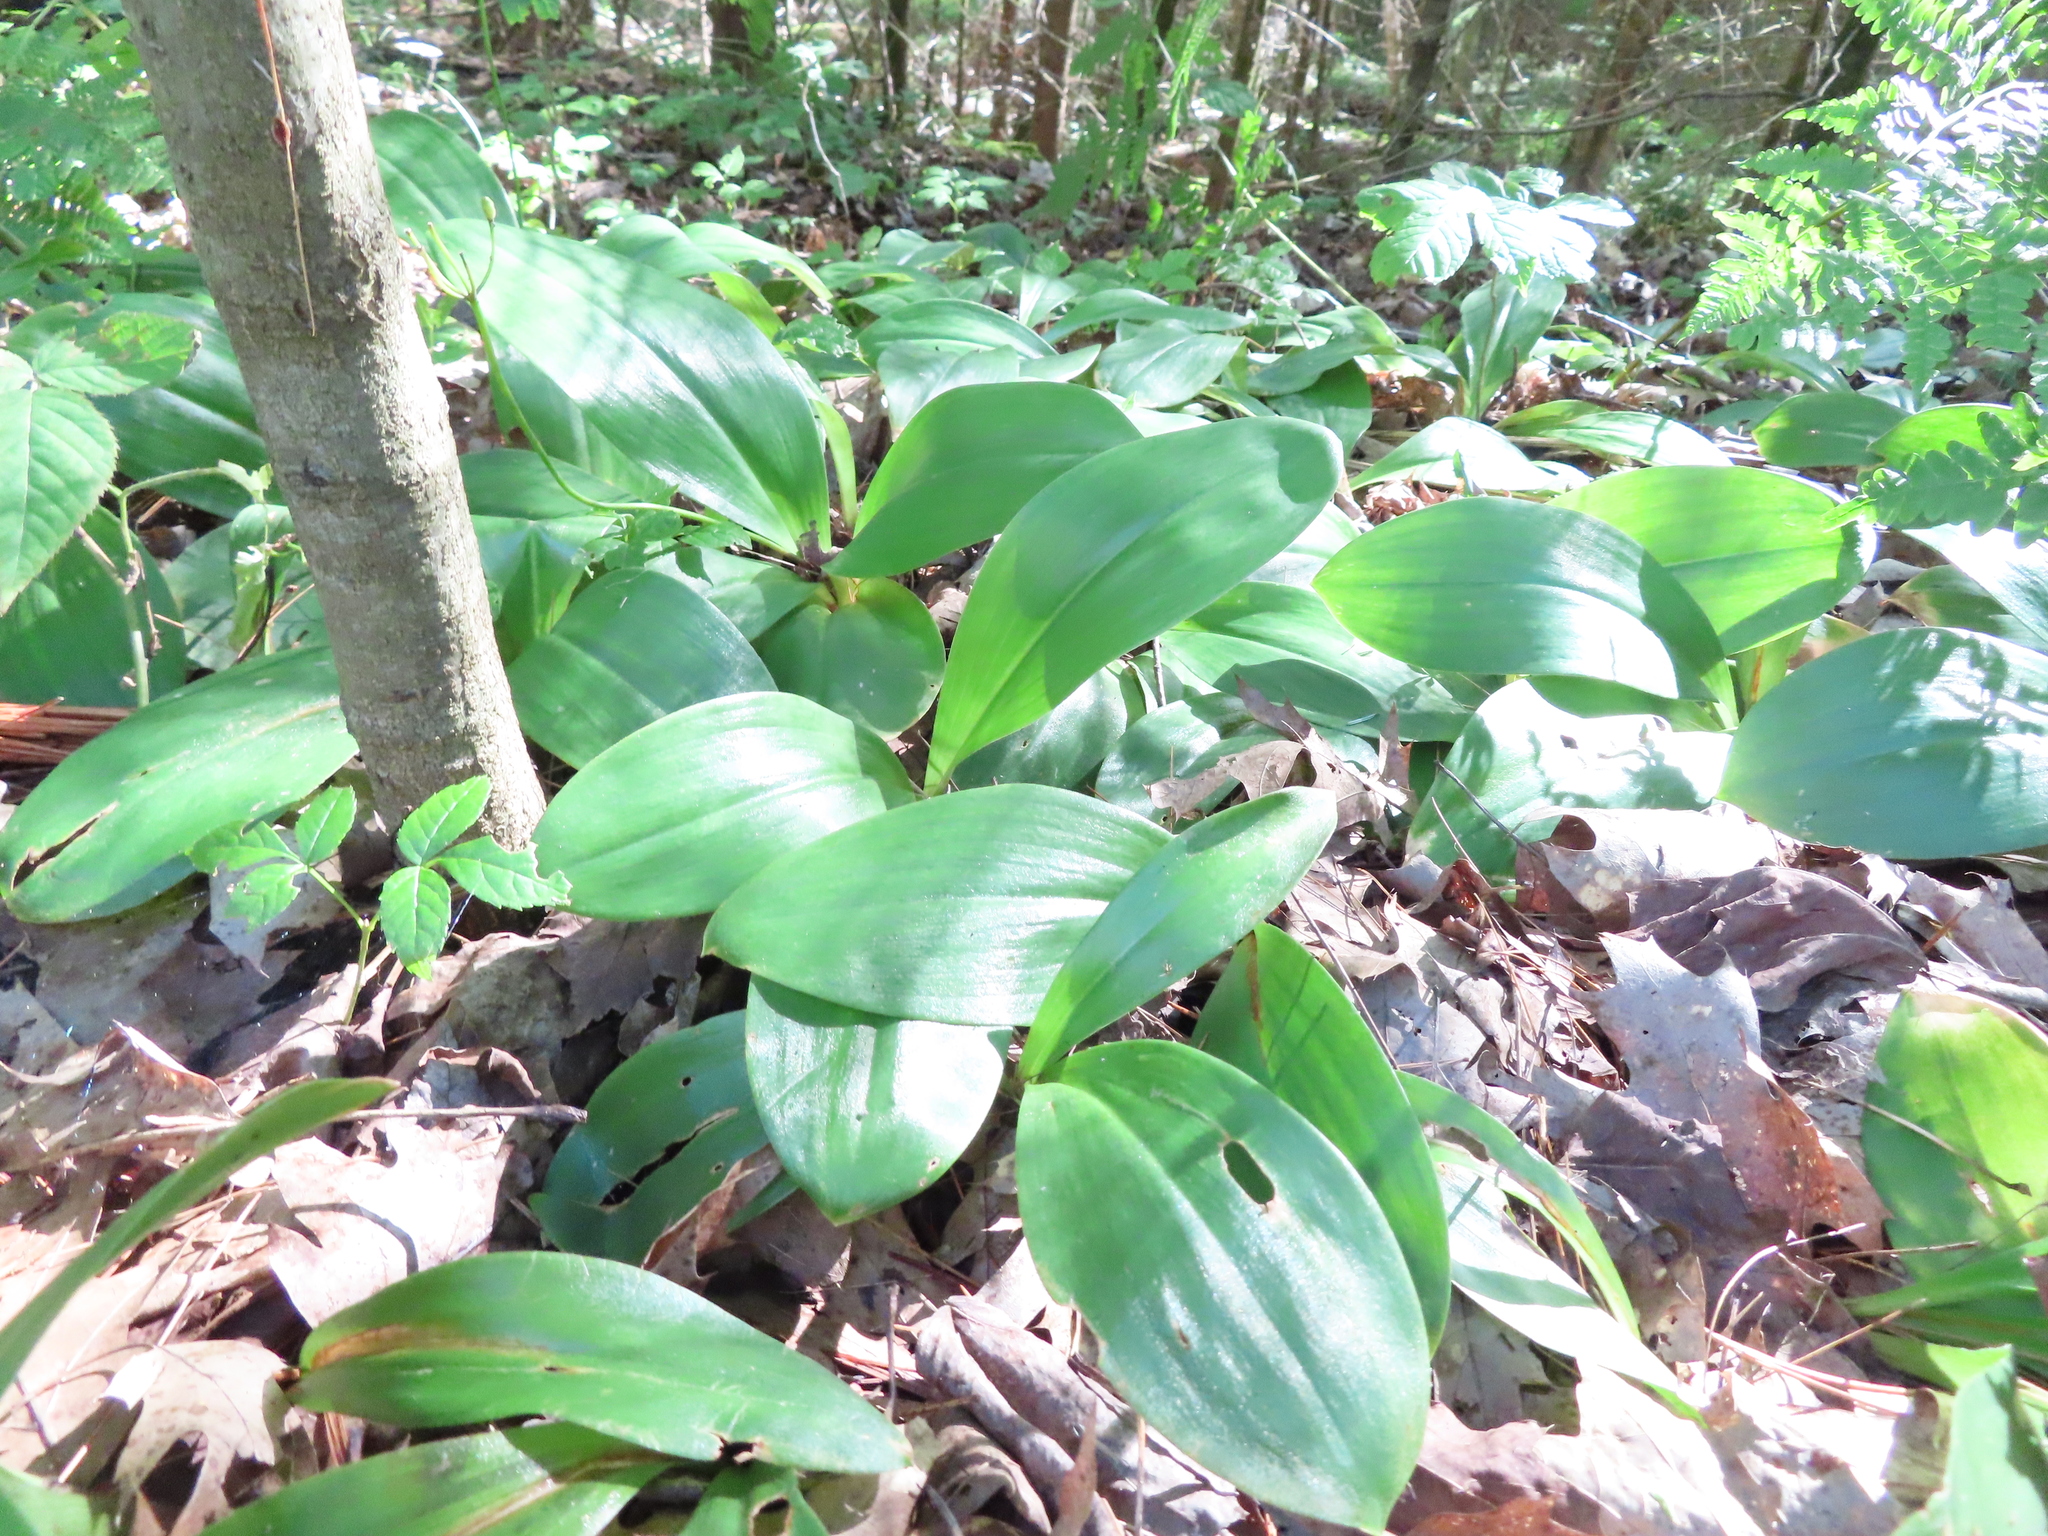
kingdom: Plantae
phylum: Tracheophyta
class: Liliopsida
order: Liliales
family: Liliaceae
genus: Clintonia
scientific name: Clintonia borealis
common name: Yellow clintonia
